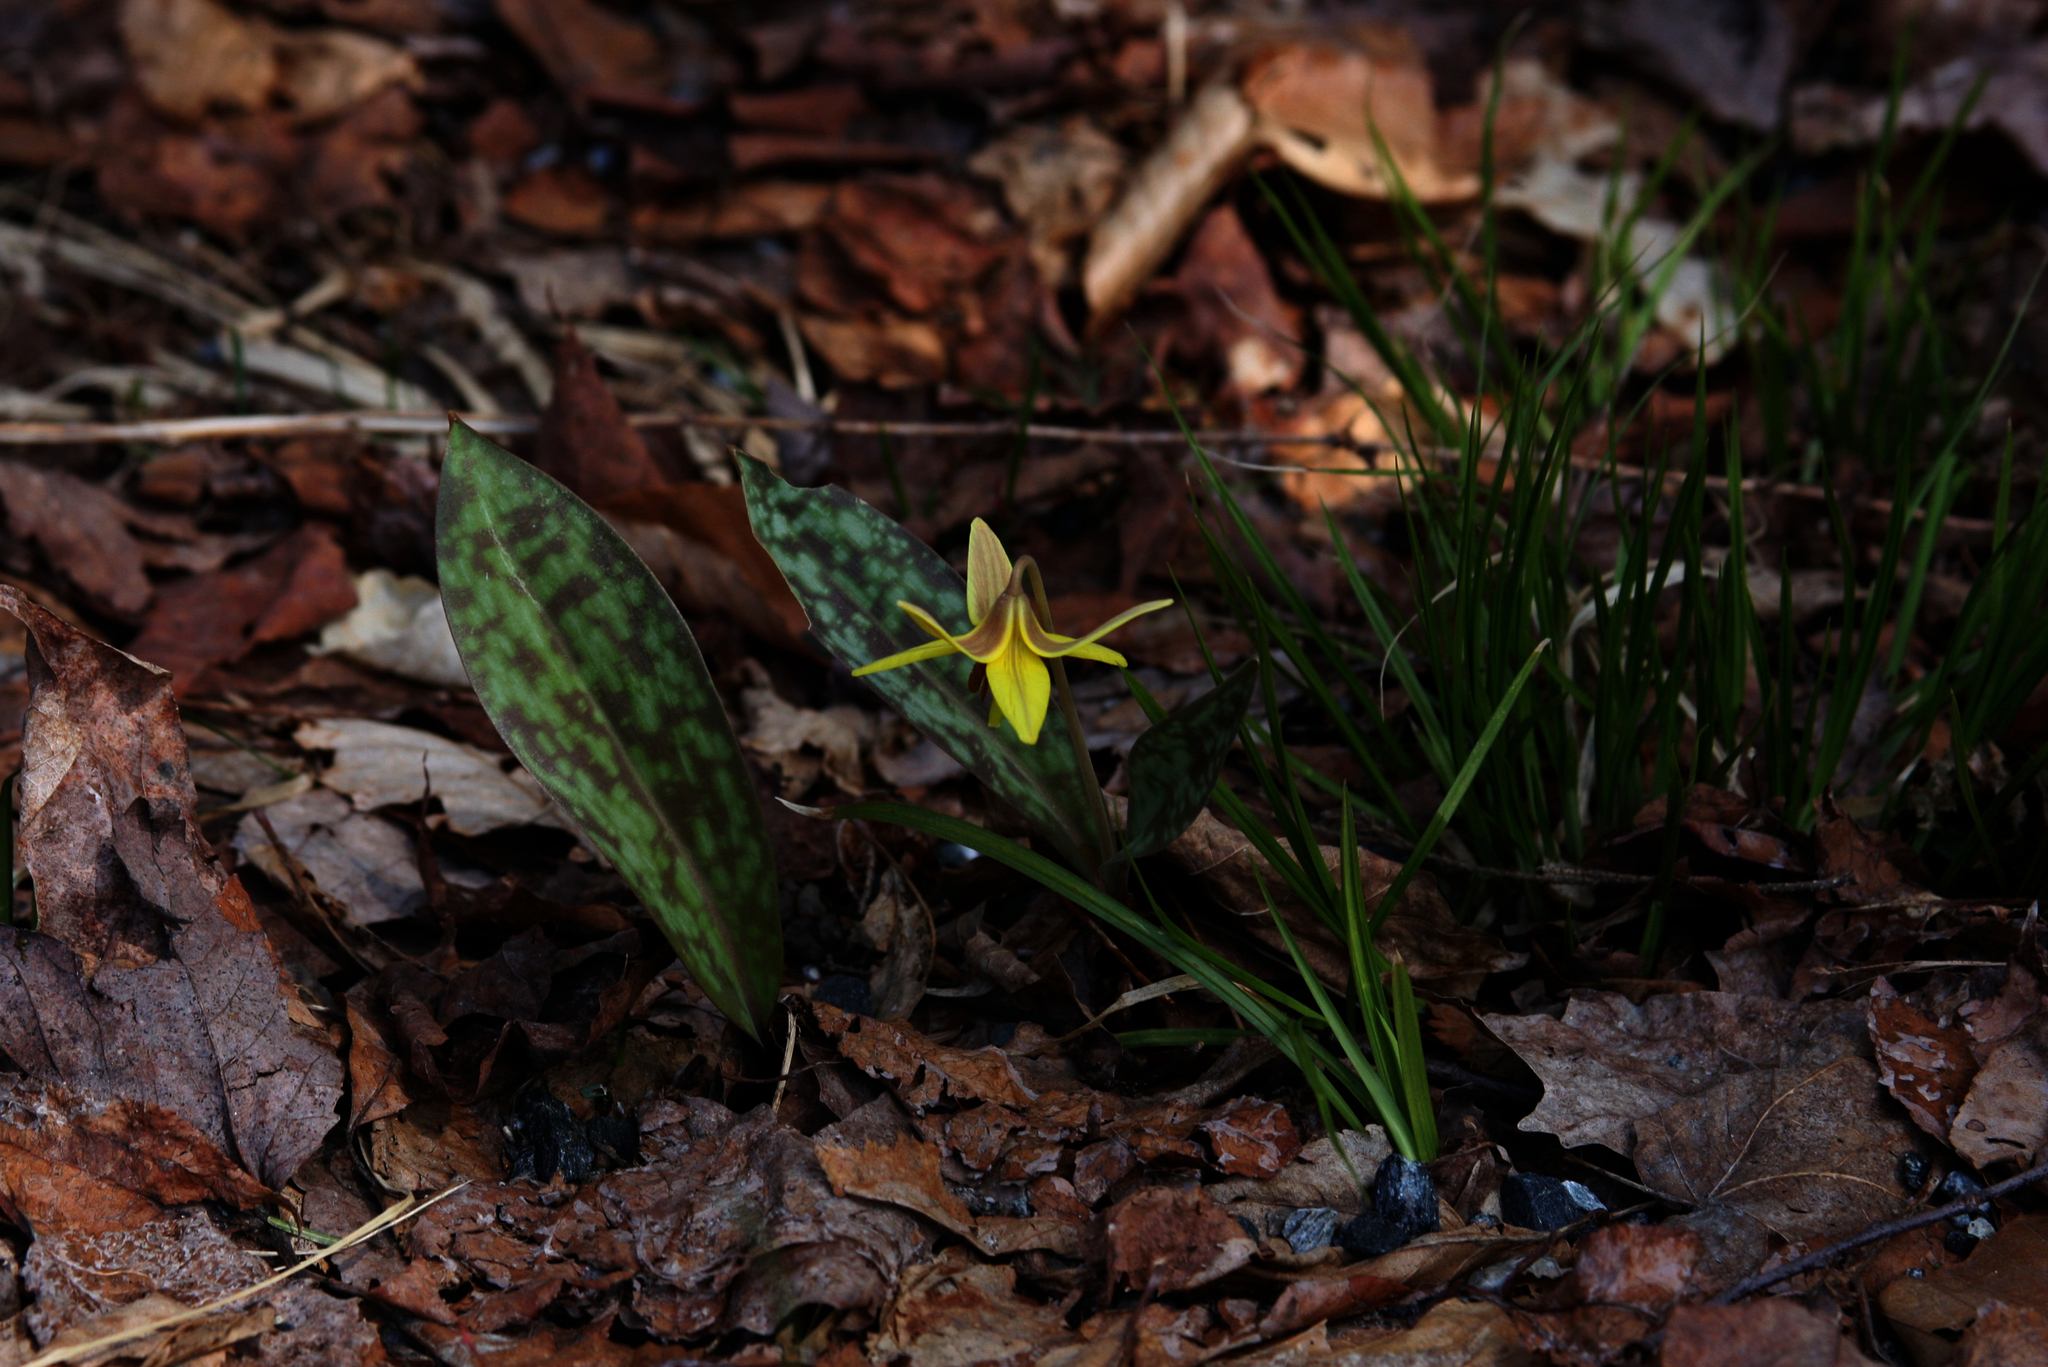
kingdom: Plantae
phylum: Tracheophyta
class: Liliopsida
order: Liliales
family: Liliaceae
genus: Erythronium
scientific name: Erythronium americanum
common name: Yellow adder's-tongue
